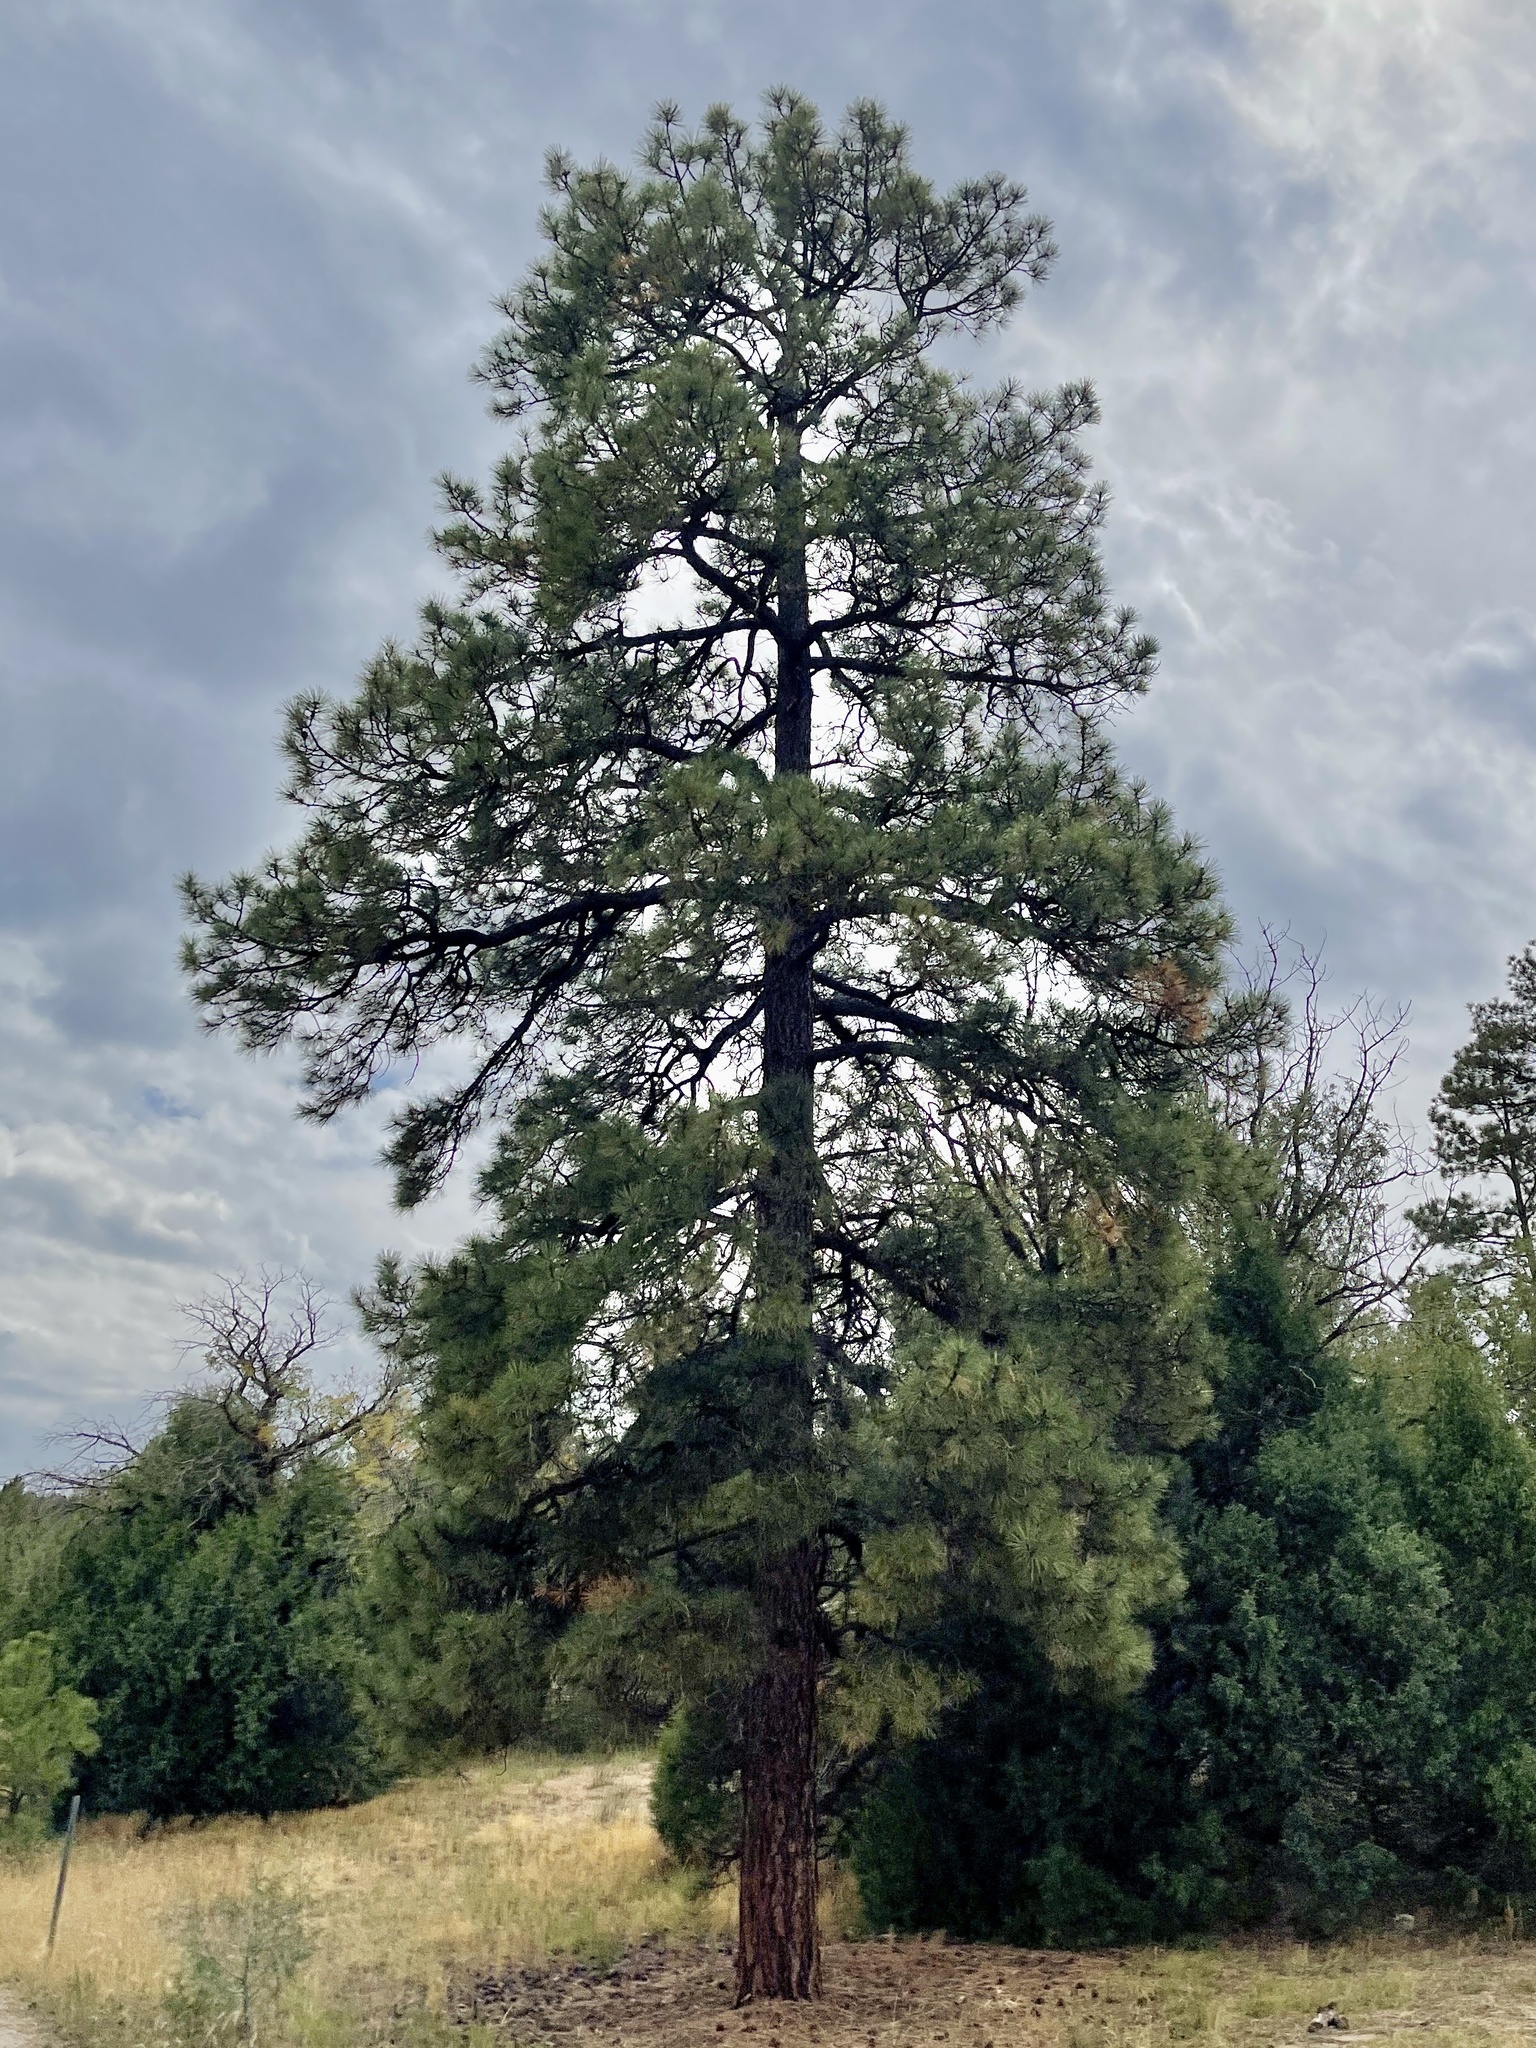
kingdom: Plantae
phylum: Tracheophyta
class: Pinopsida
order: Pinales
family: Pinaceae
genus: Pinus
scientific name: Pinus ponderosa
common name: Western yellow-pine
